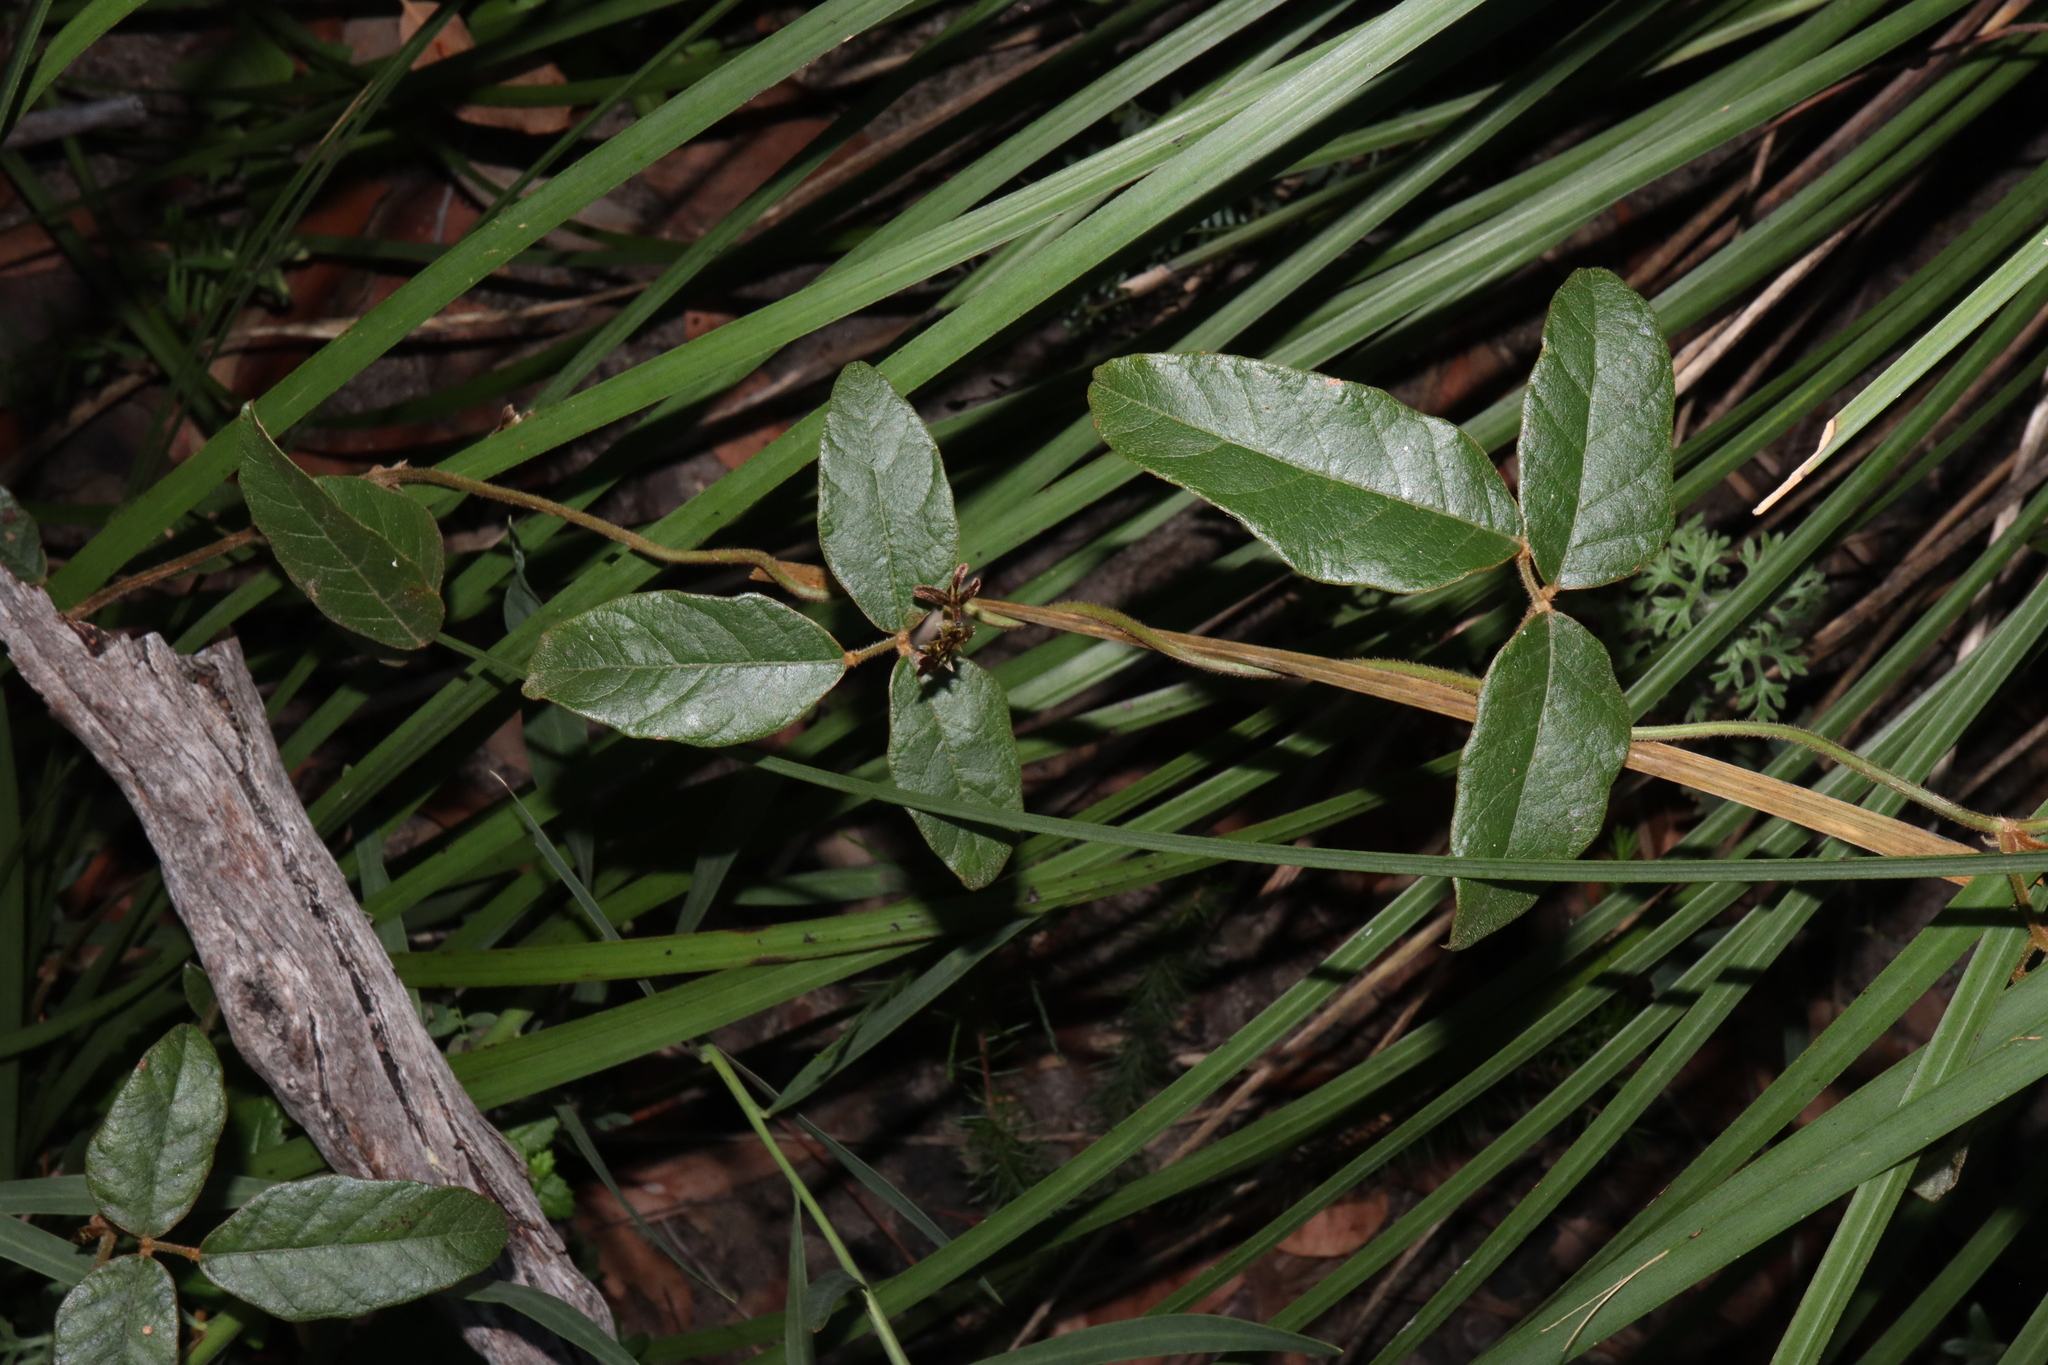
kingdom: Plantae
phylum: Tracheophyta
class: Magnoliopsida
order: Fabales
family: Fabaceae
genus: Kennedia
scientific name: Kennedia rubicunda
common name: Red kennedy-pea
